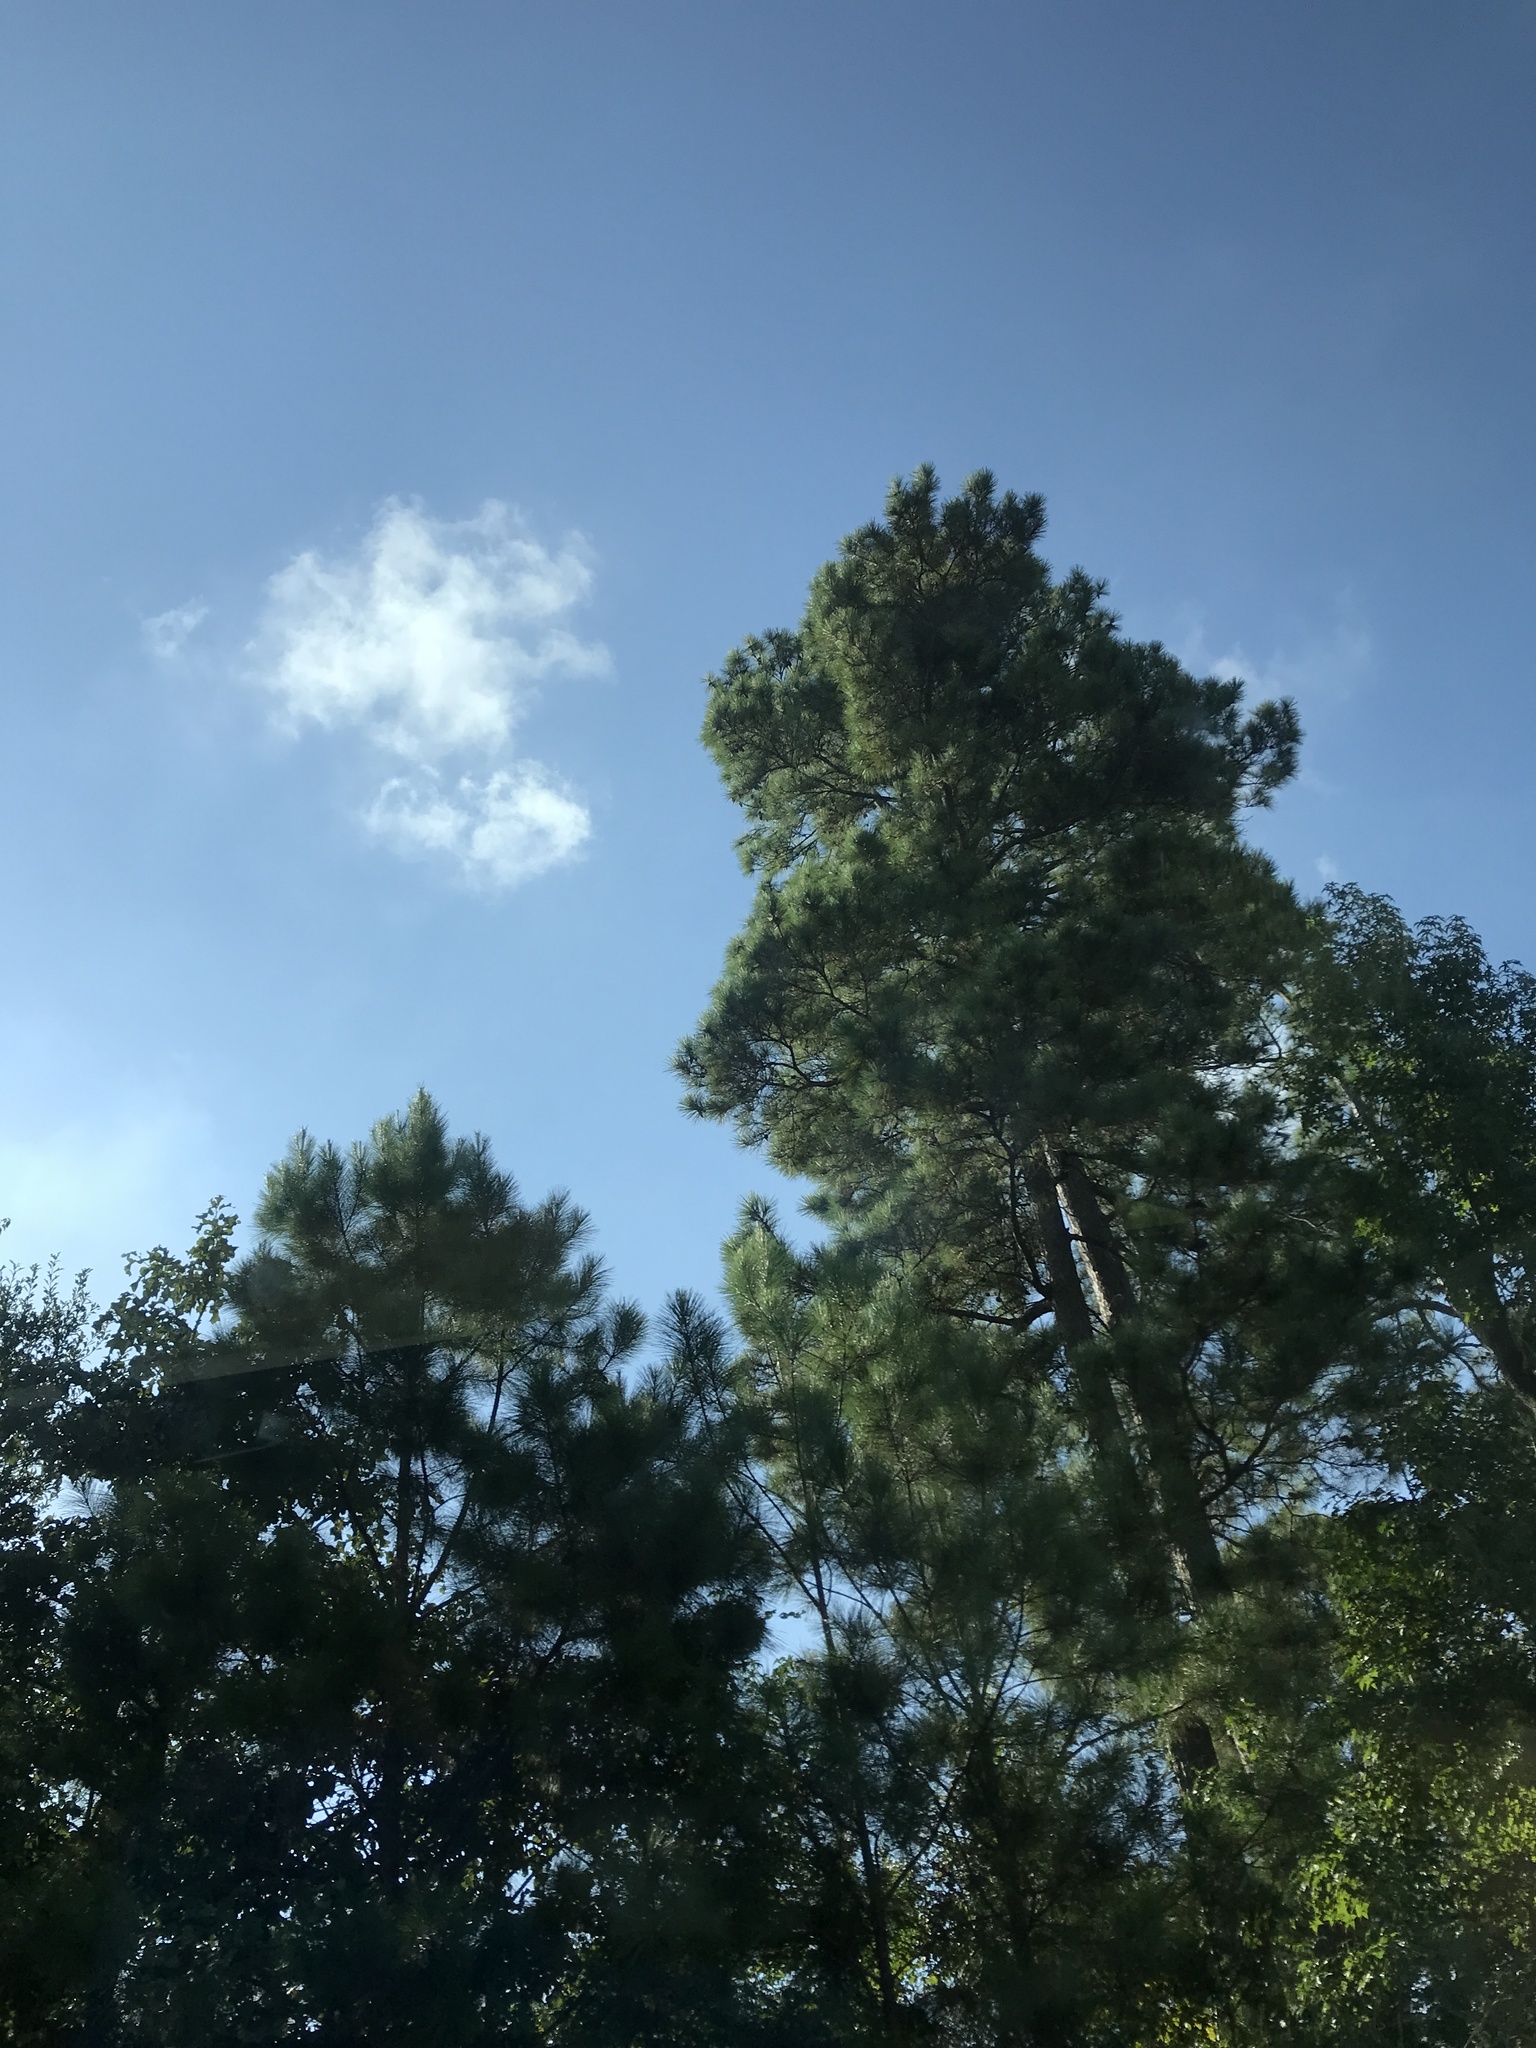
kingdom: Plantae
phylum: Tracheophyta
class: Pinopsida
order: Pinales
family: Pinaceae
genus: Pinus
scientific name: Pinus taeda
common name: Loblolly pine
